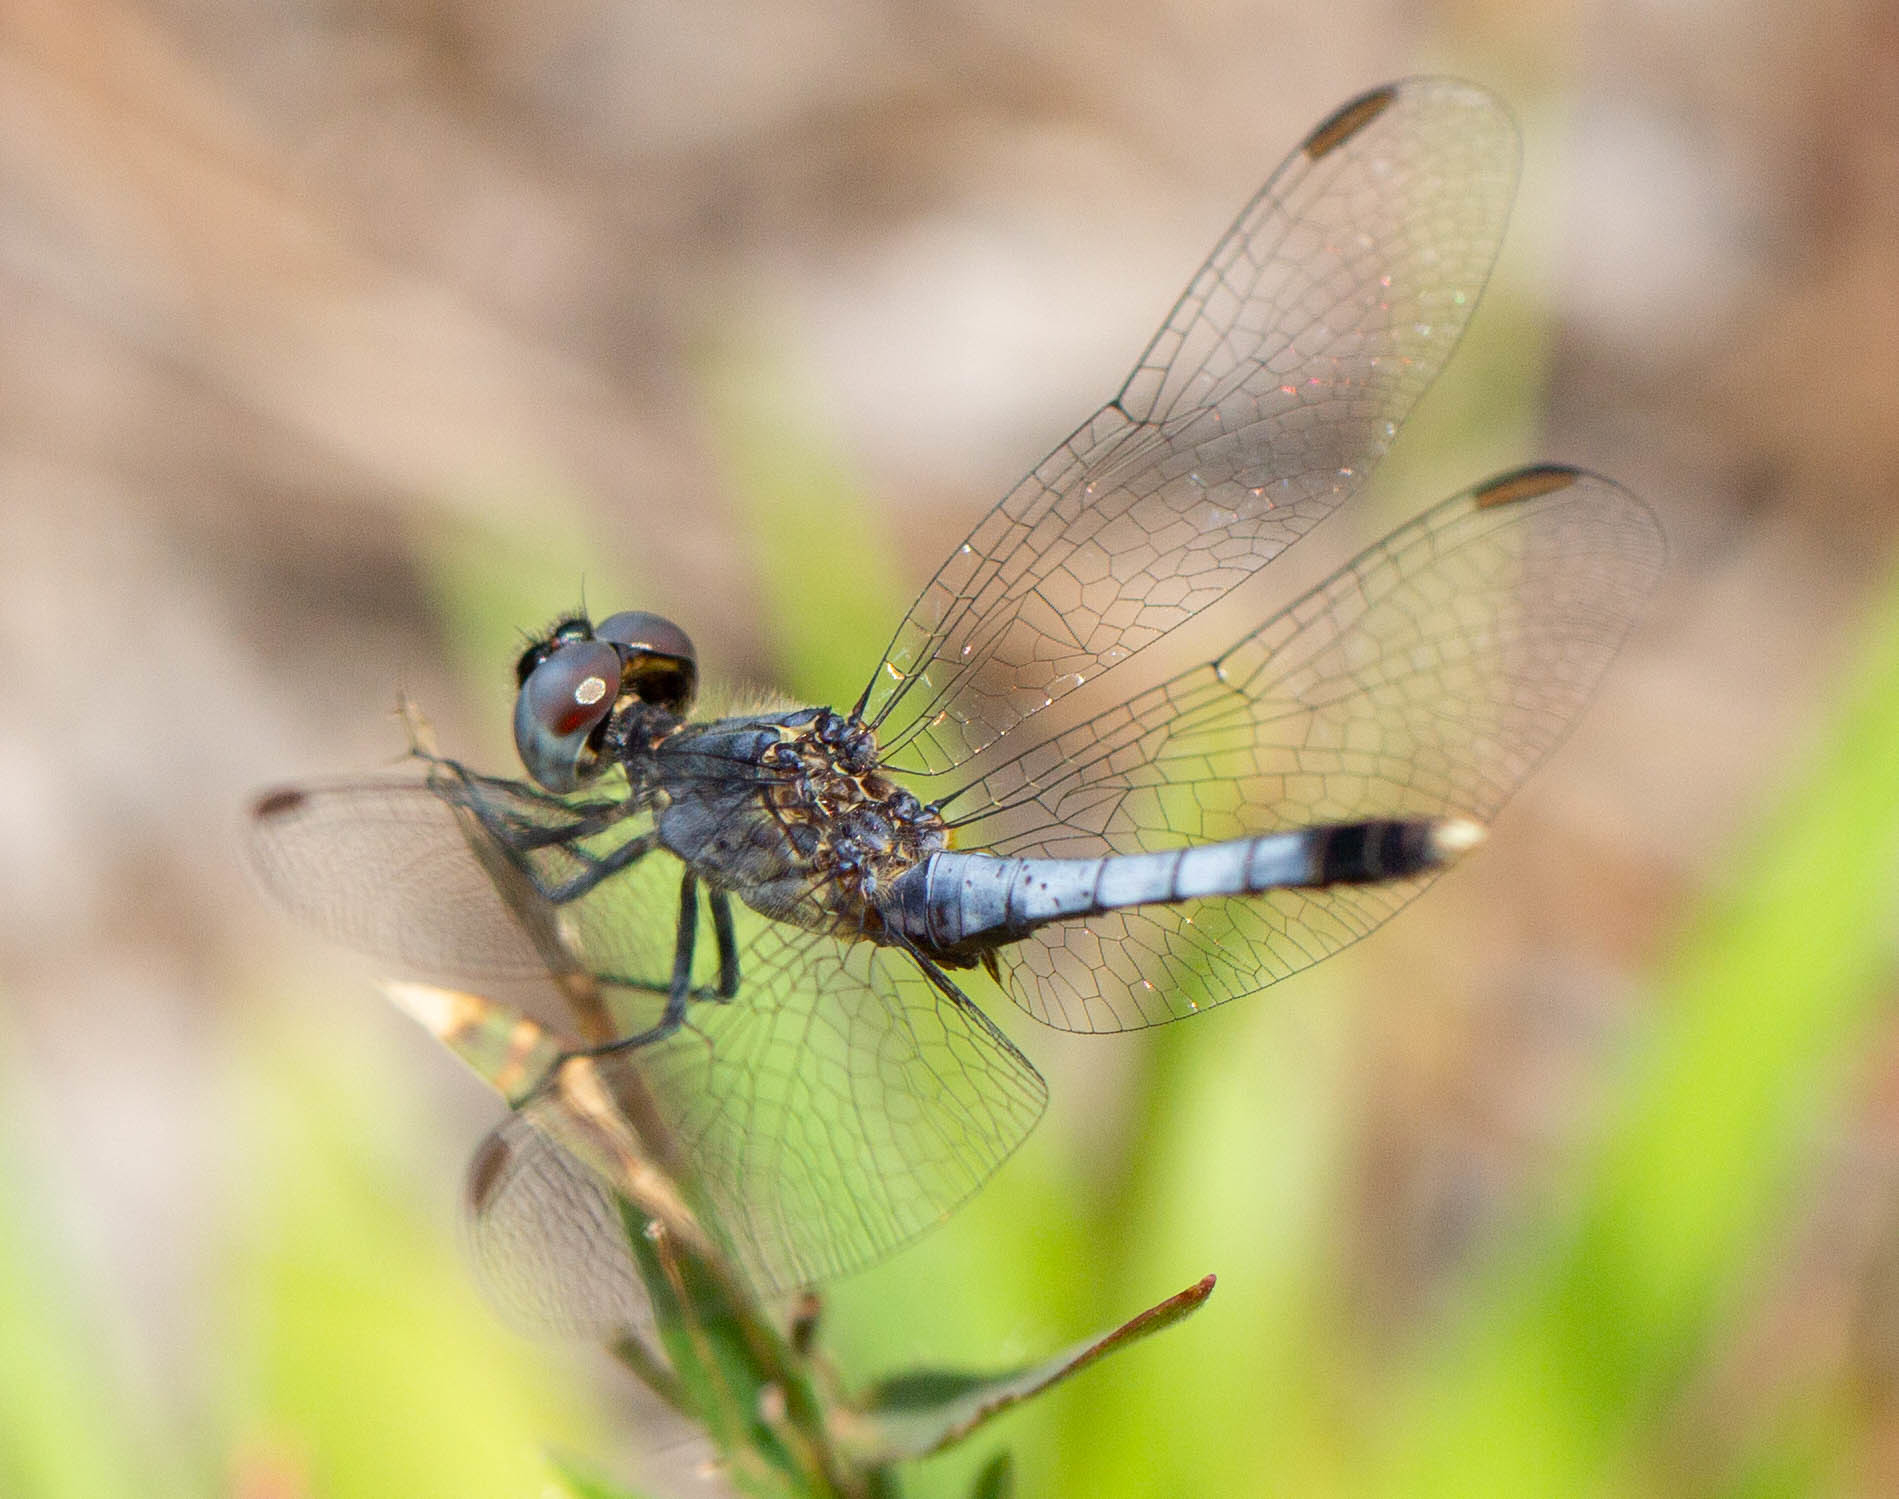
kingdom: Animalia
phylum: Arthropoda
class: Insecta
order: Odonata
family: Libellulidae
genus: Erythrodiplax
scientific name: Erythrodiplax minuscula
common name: Little blue dragonlet
